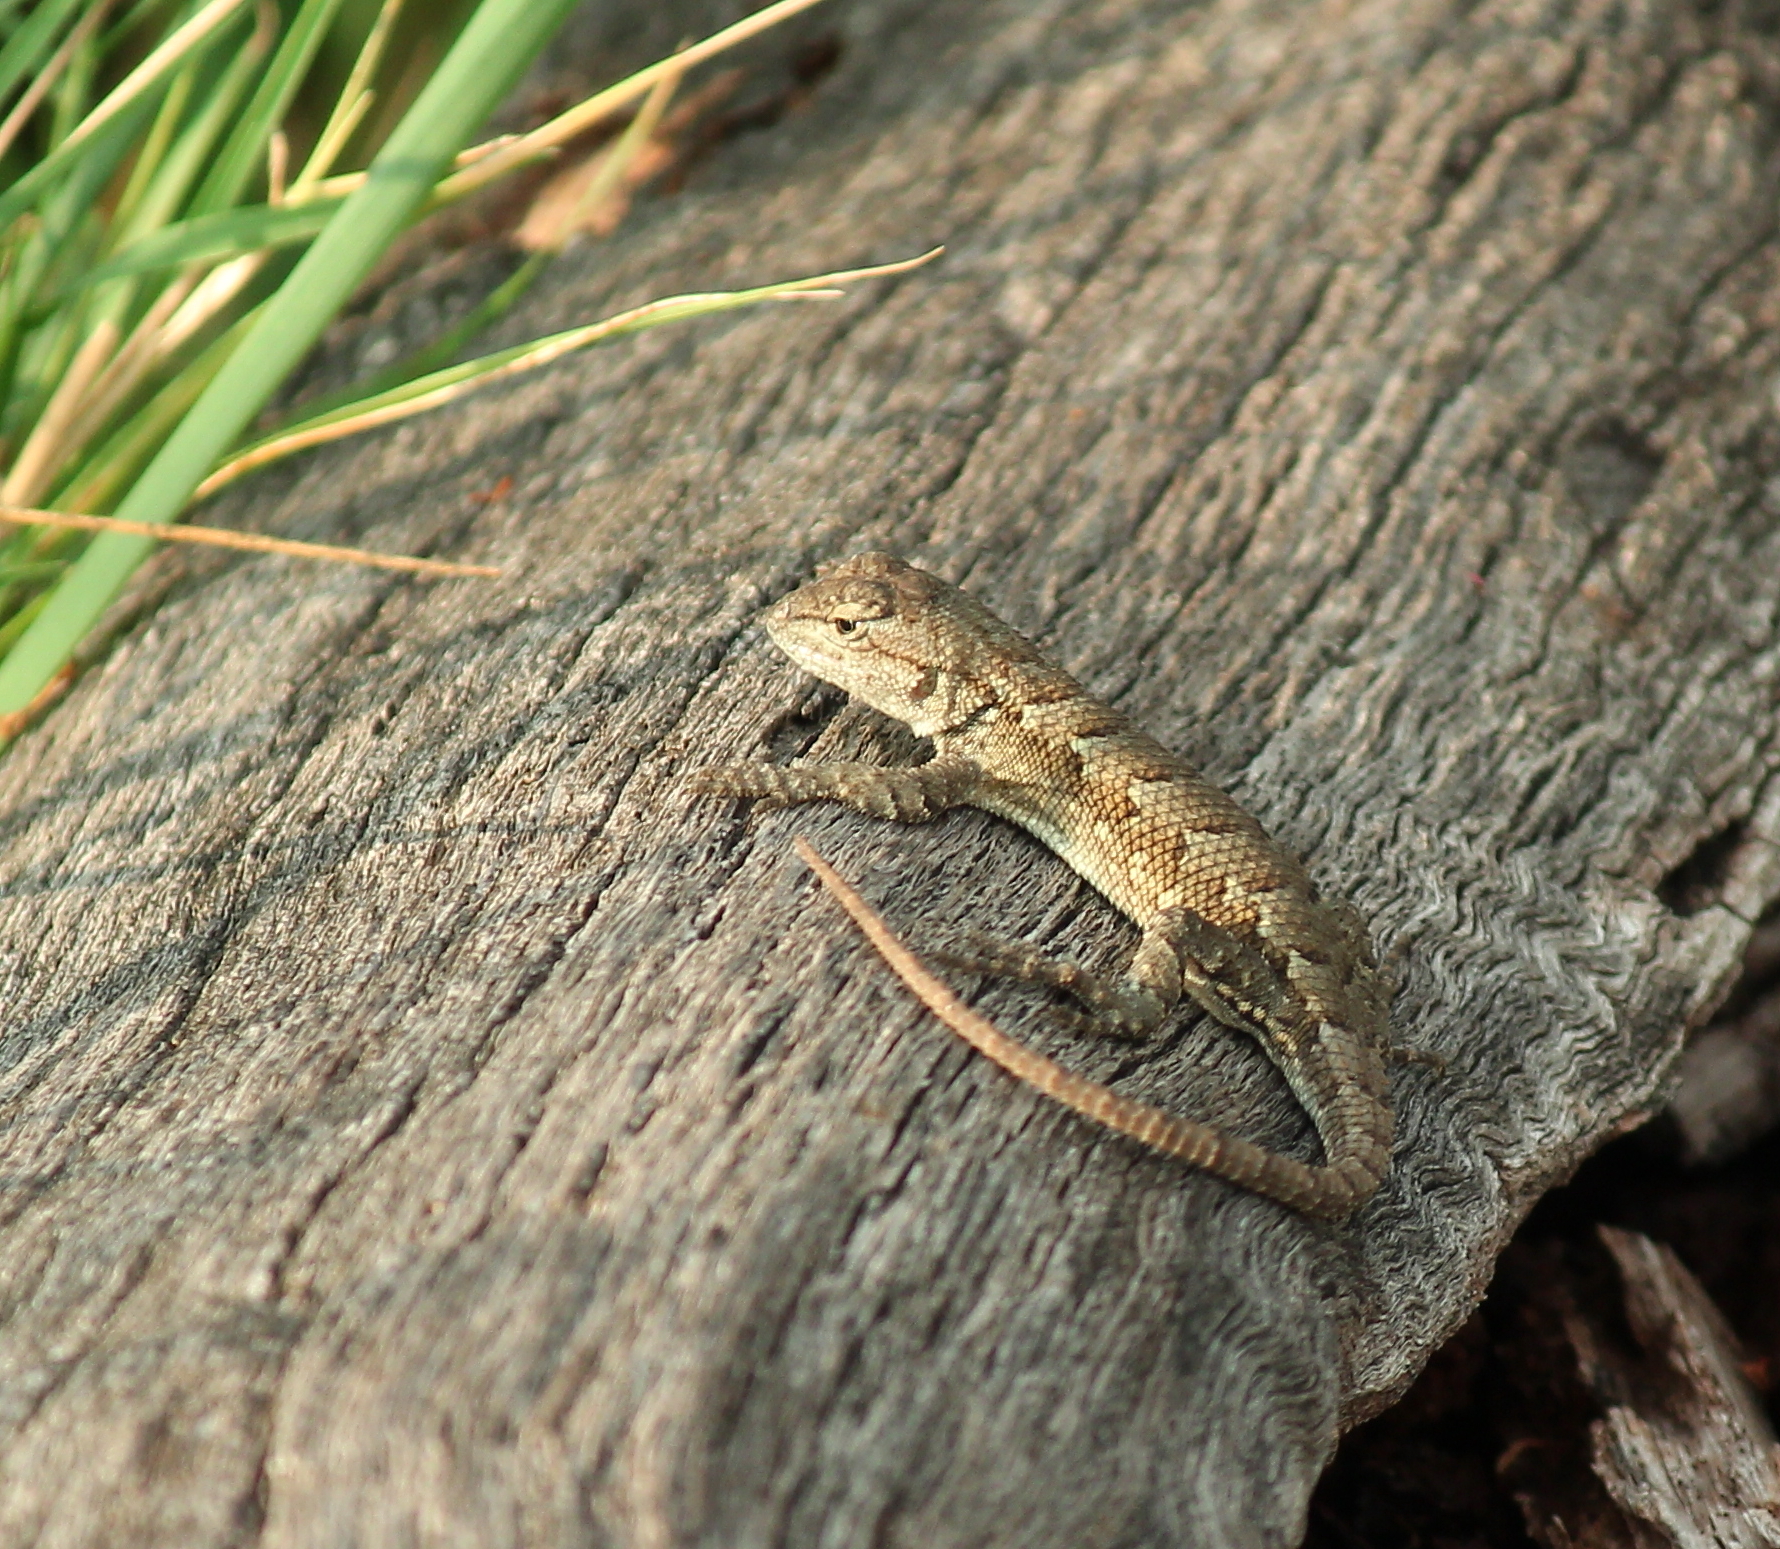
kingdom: Animalia
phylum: Chordata
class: Squamata
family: Phrynosomatidae
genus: Sceloporus
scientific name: Sceloporus consobrinus
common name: Southern prairie lizard
